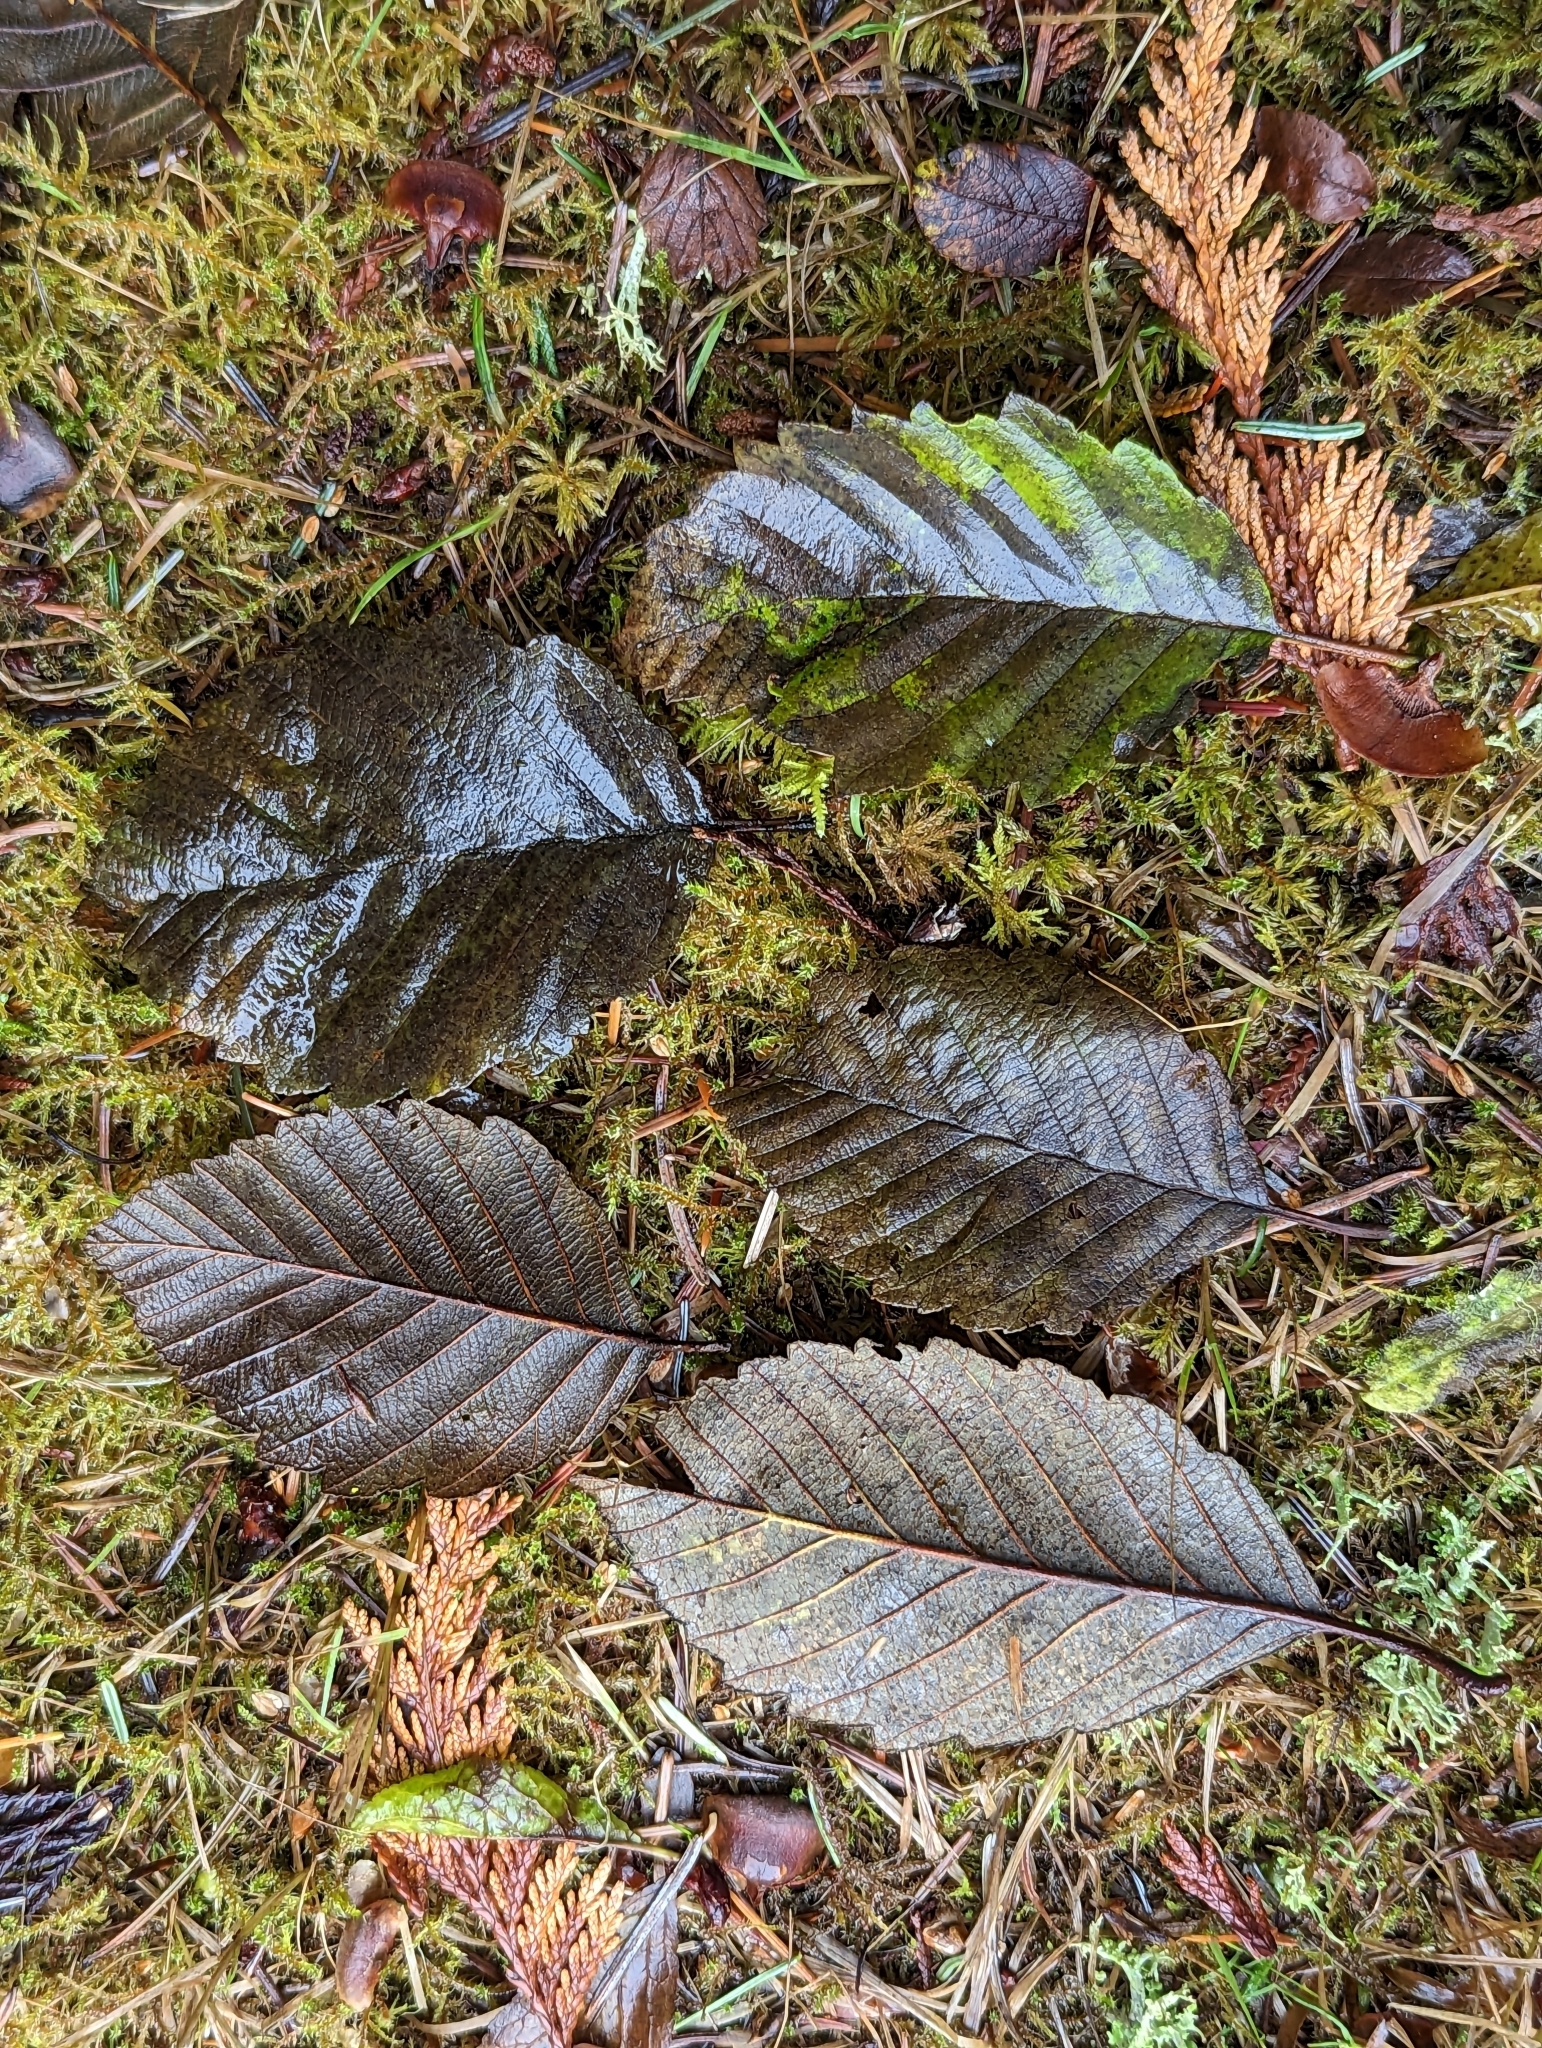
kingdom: Plantae
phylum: Tracheophyta
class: Magnoliopsida
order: Fagales
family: Betulaceae
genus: Alnus
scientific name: Alnus rubra
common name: Red alder
